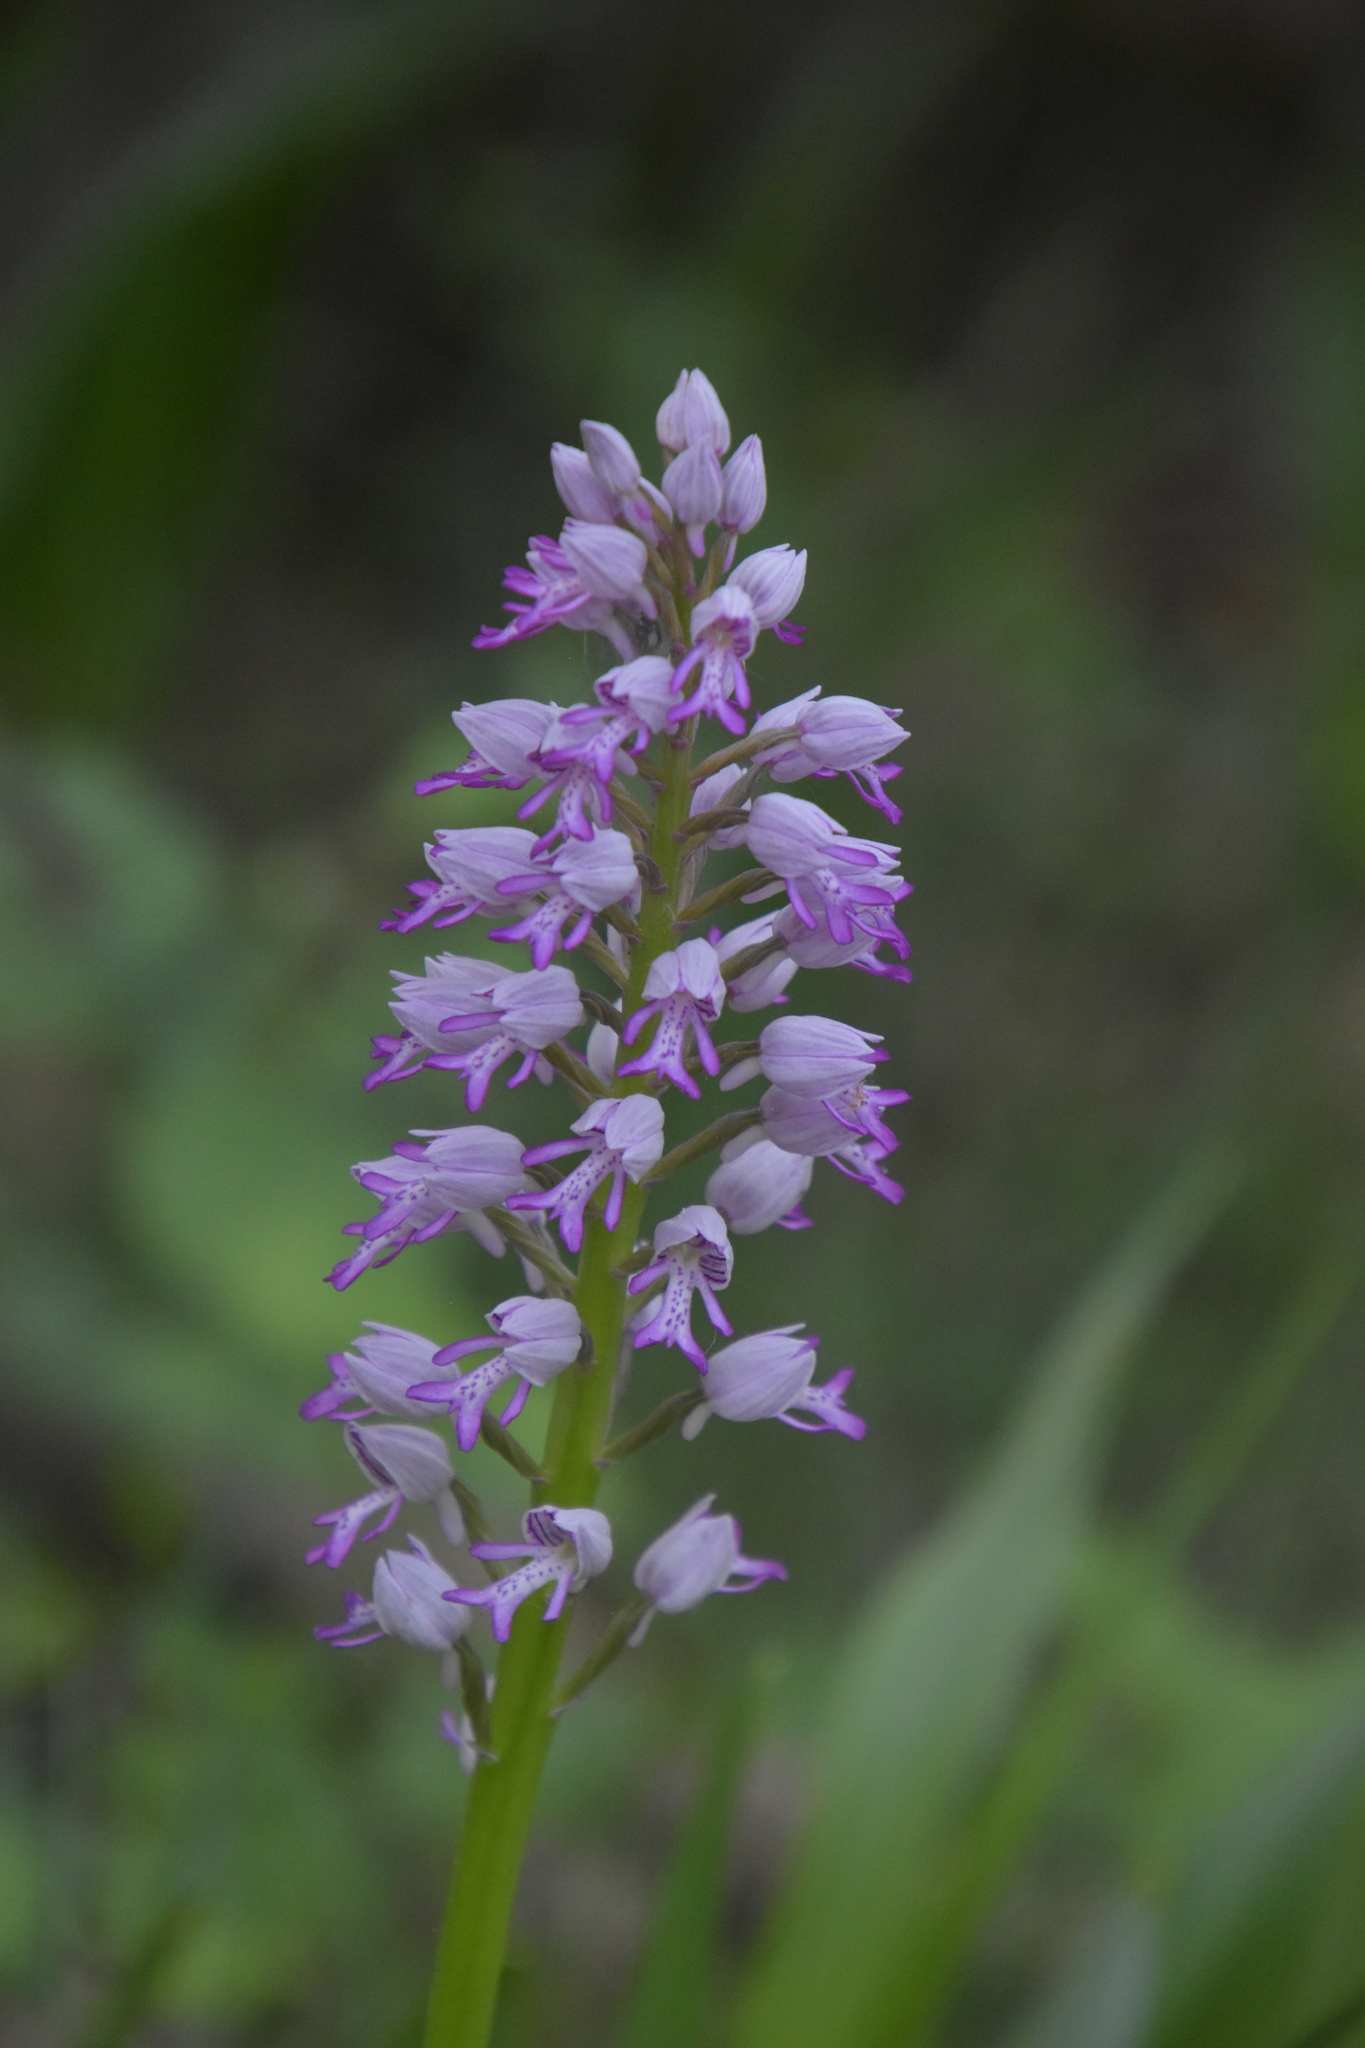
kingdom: Plantae
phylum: Tracheophyta
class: Liliopsida
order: Asparagales
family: Orchidaceae
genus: Orchis
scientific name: Orchis militaris
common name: Military orchid
